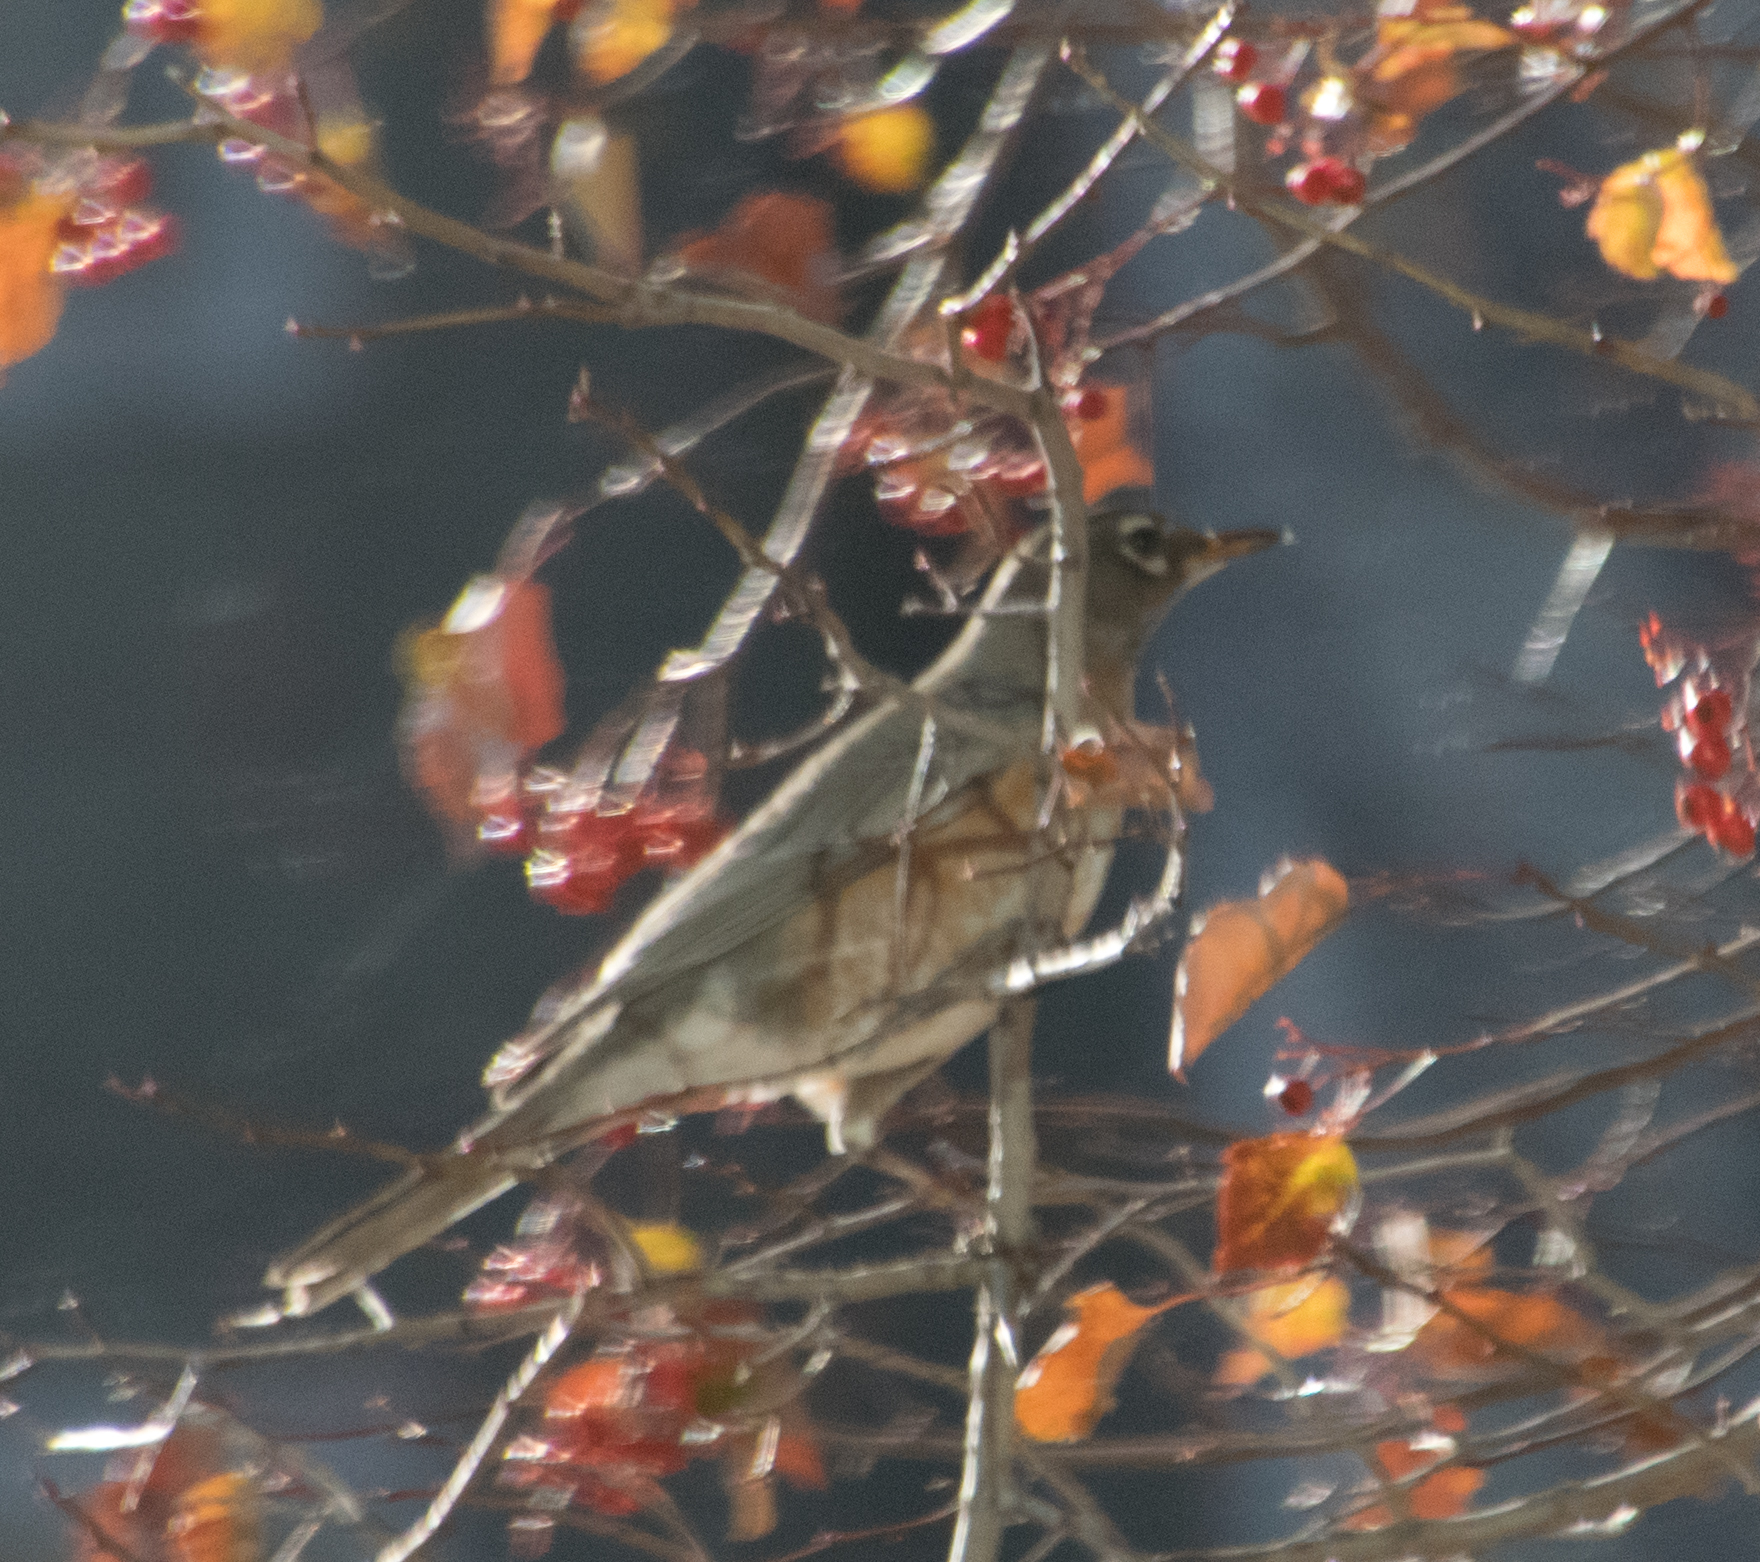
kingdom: Animalia
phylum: Chordata
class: Aves
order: Passeriformes
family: Turdidae
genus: Turdus
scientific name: Turdus migratorius
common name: American robin
